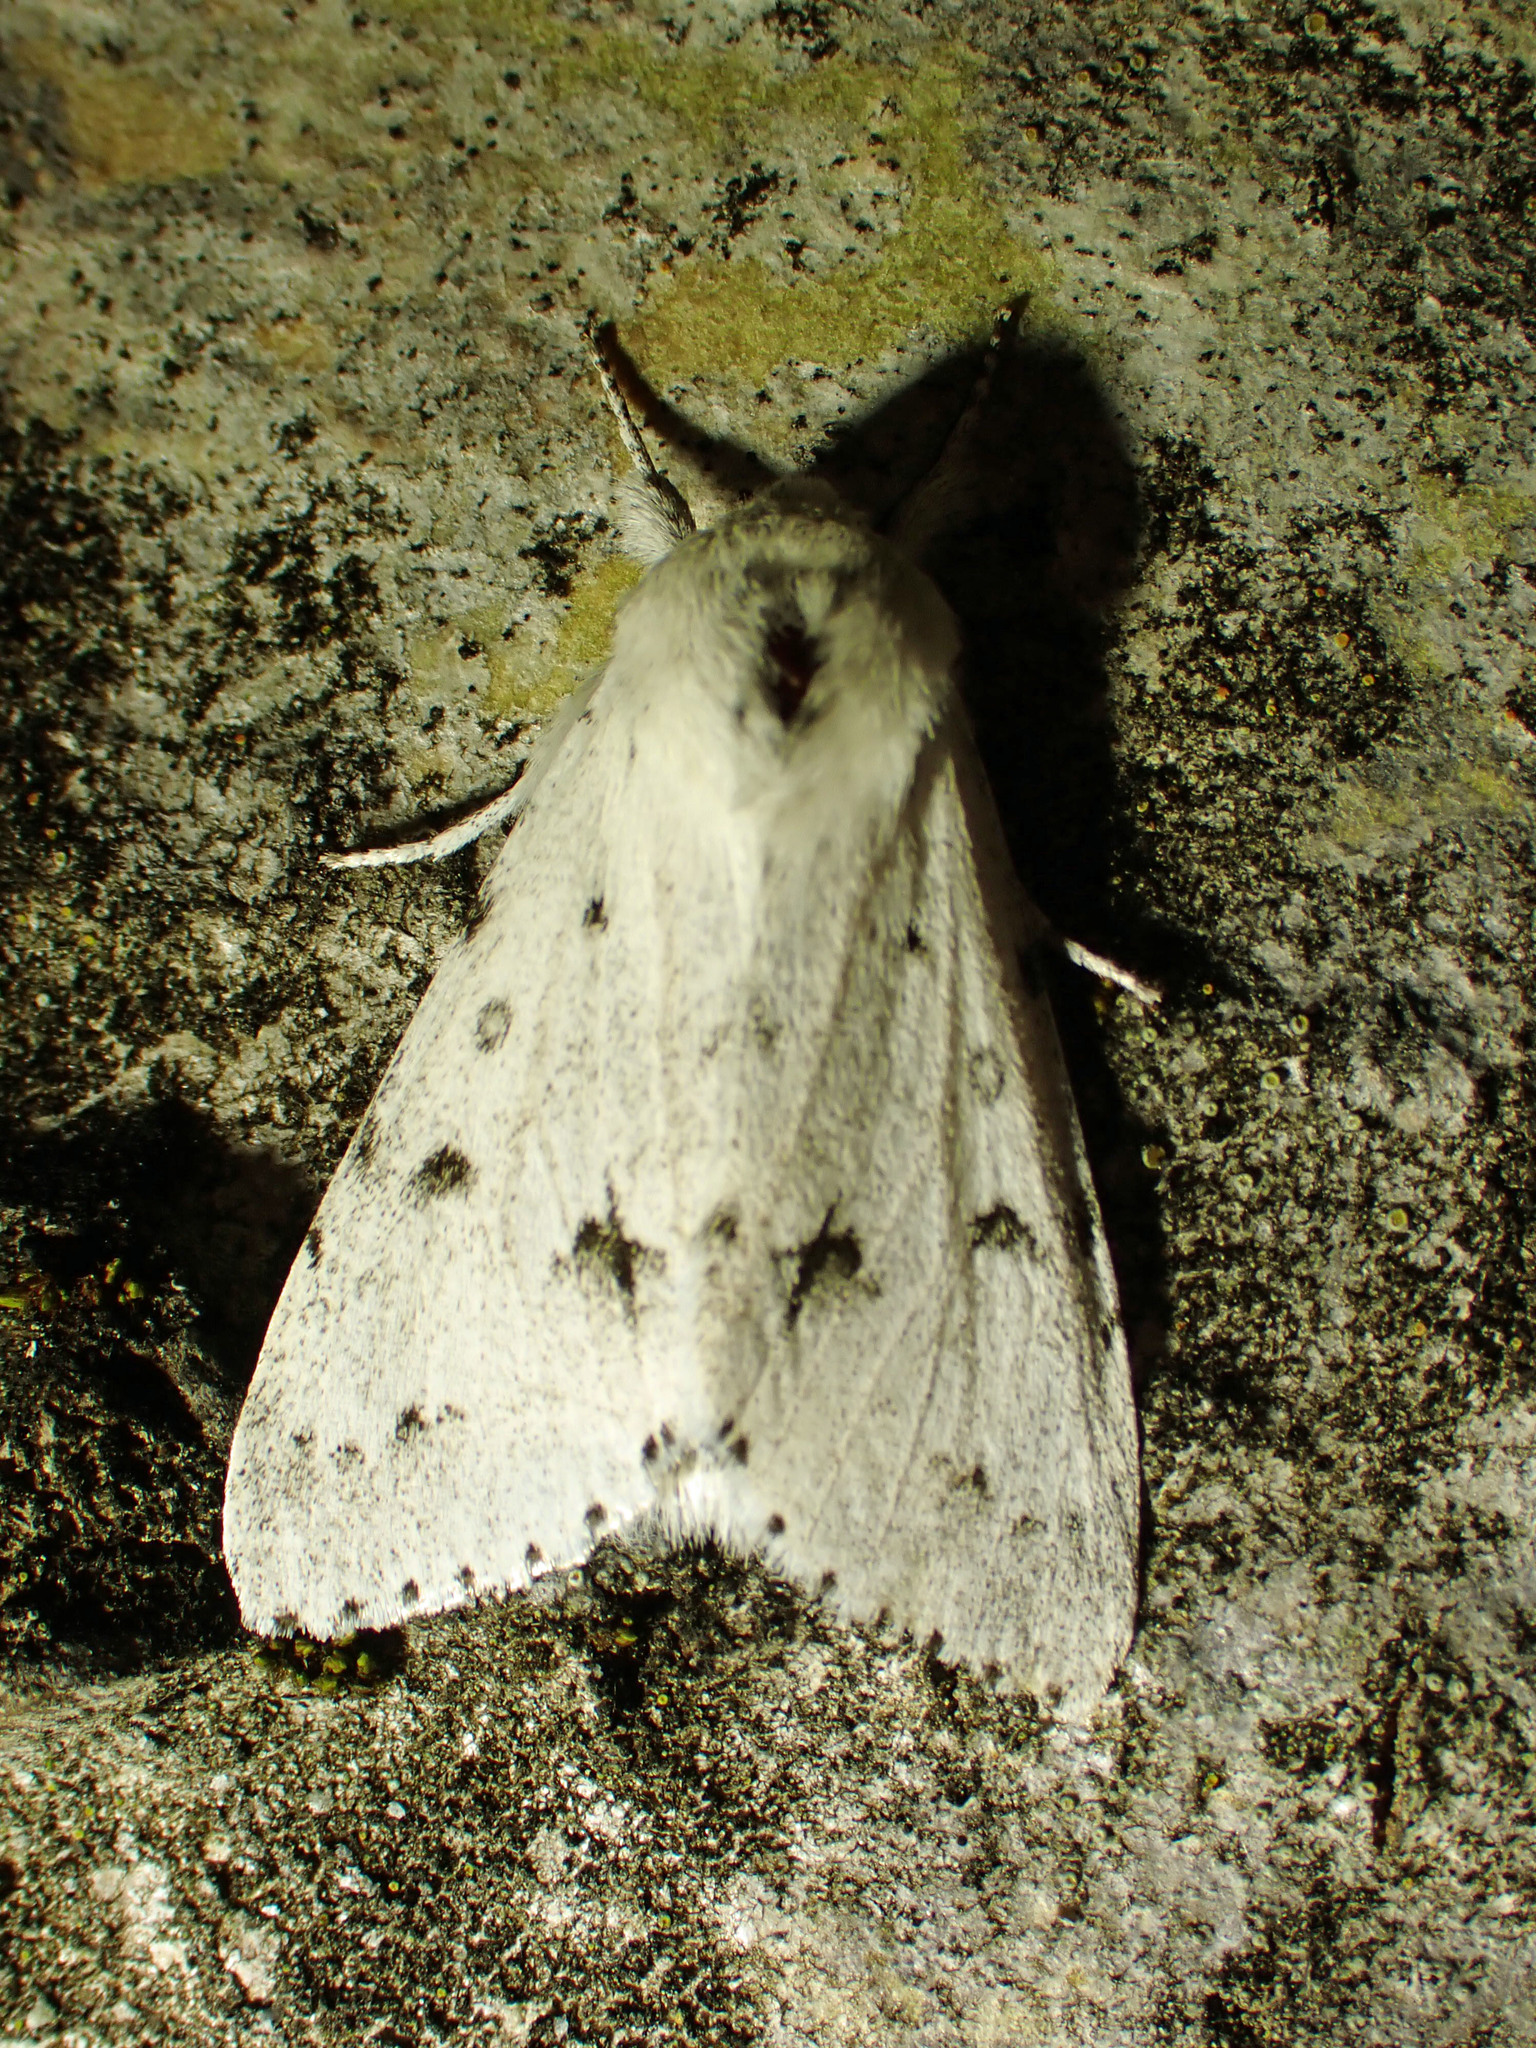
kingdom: Animalia
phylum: Arthropoda
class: Insecta
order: Lepidoptera
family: Noctuidae
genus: Acronicta
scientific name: Acronicta vulpina
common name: Miller dagger
